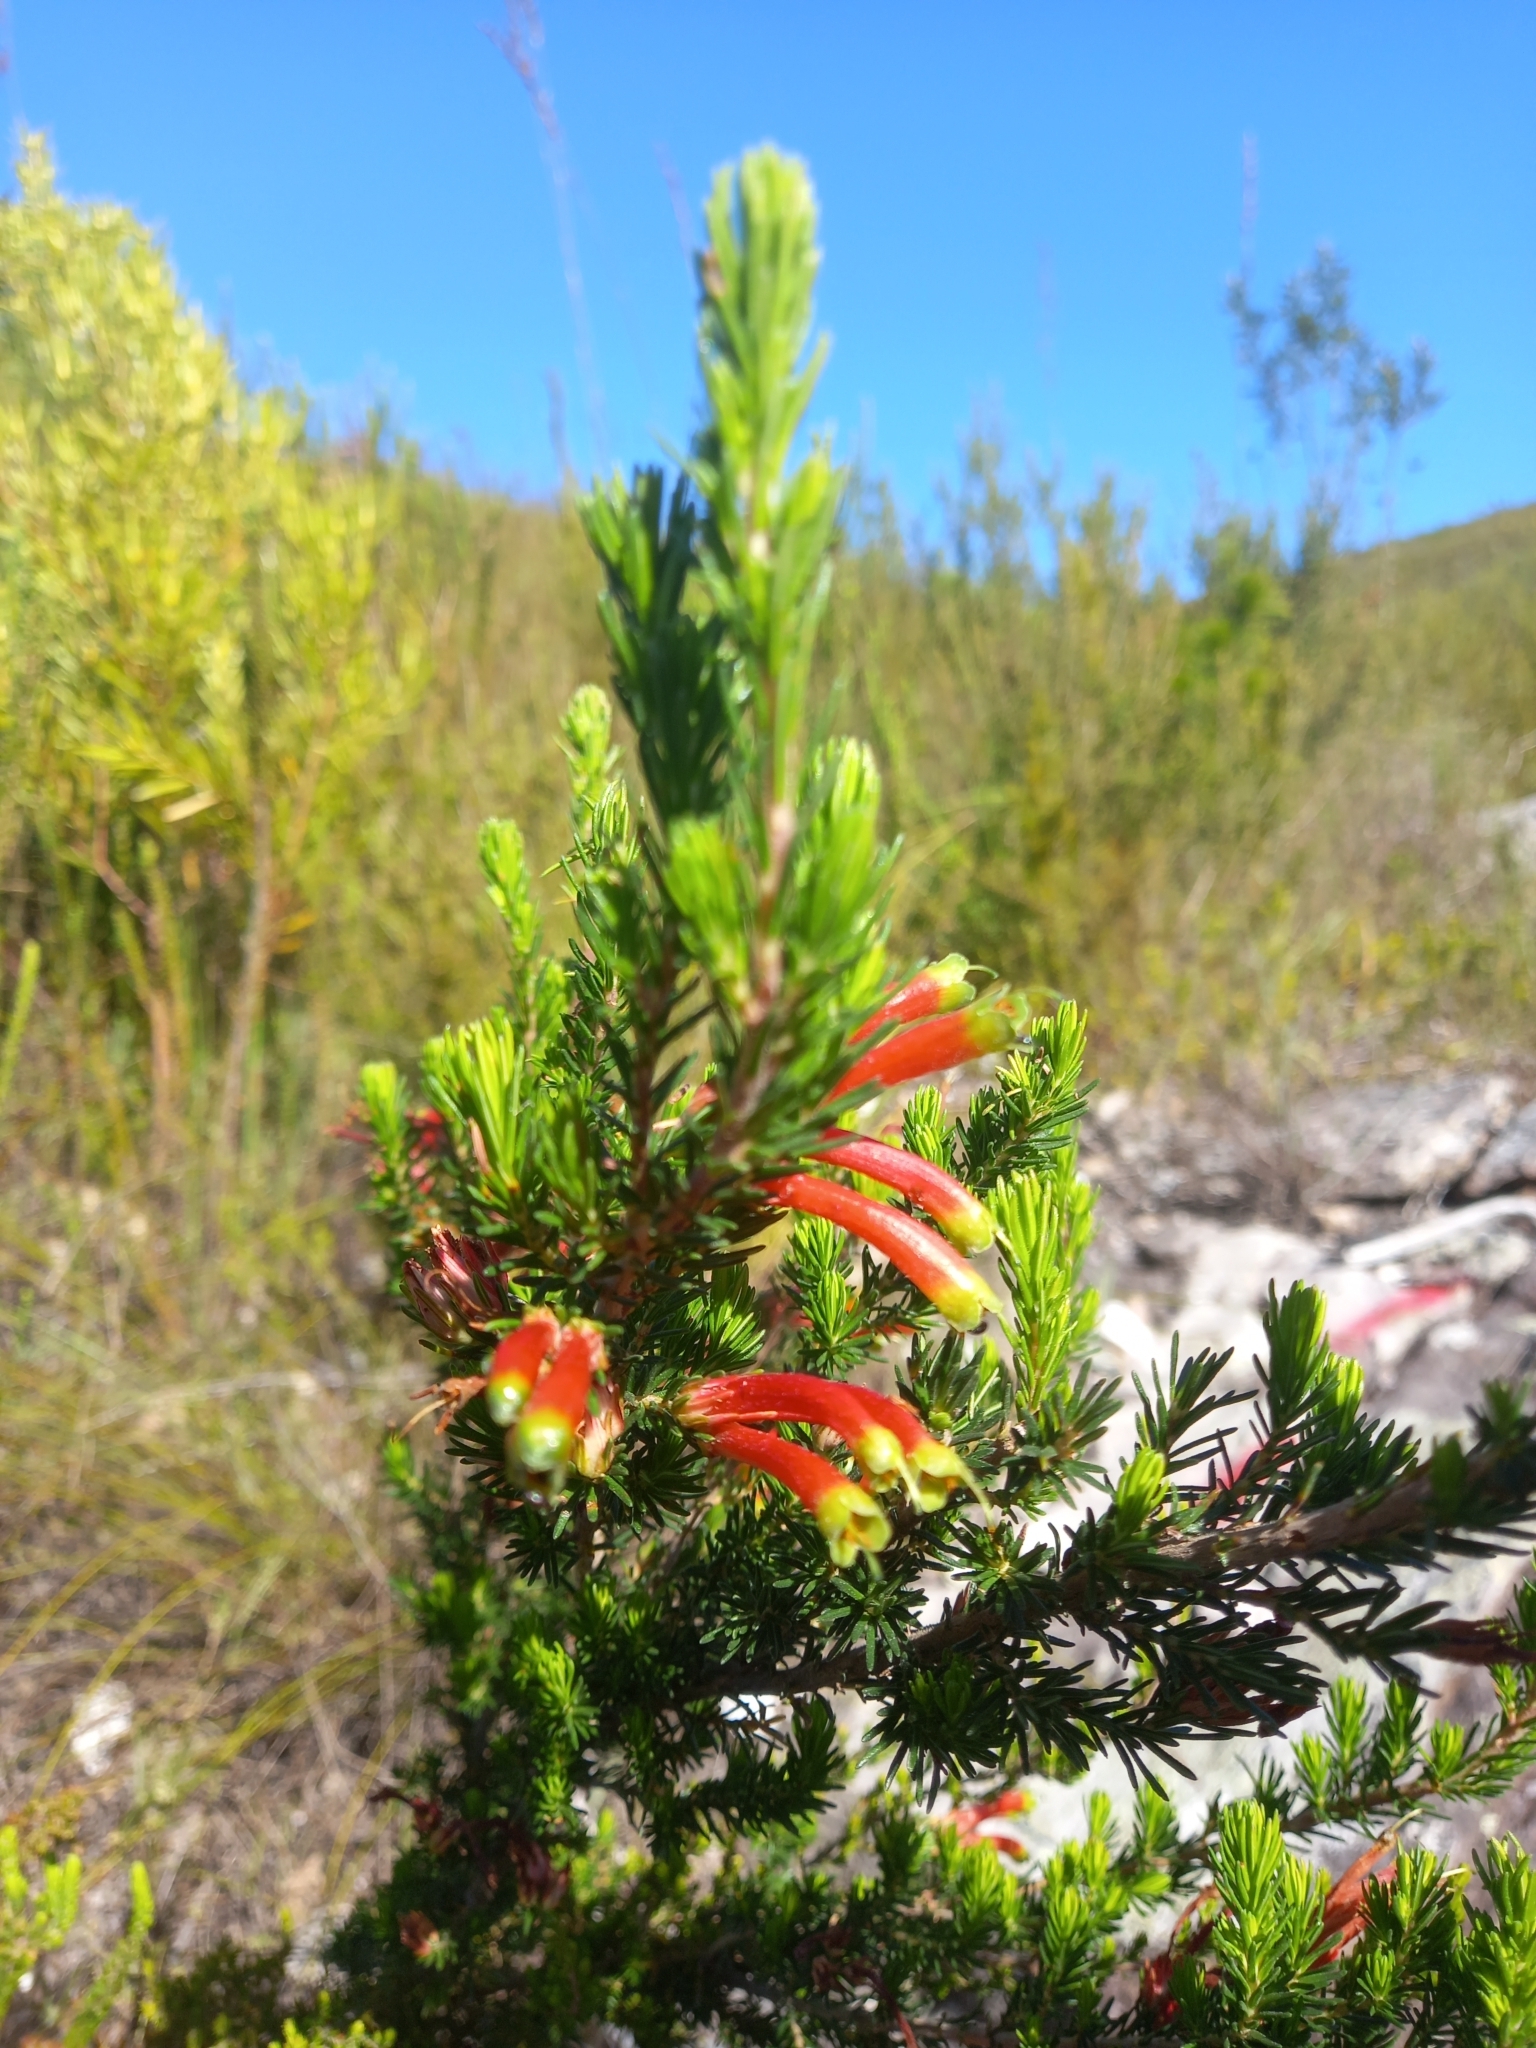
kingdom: Plantae
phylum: Tracheophyta
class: Magnoliopsida
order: Ericales
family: Ericaceae
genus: Erica
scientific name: Erica unicolor
